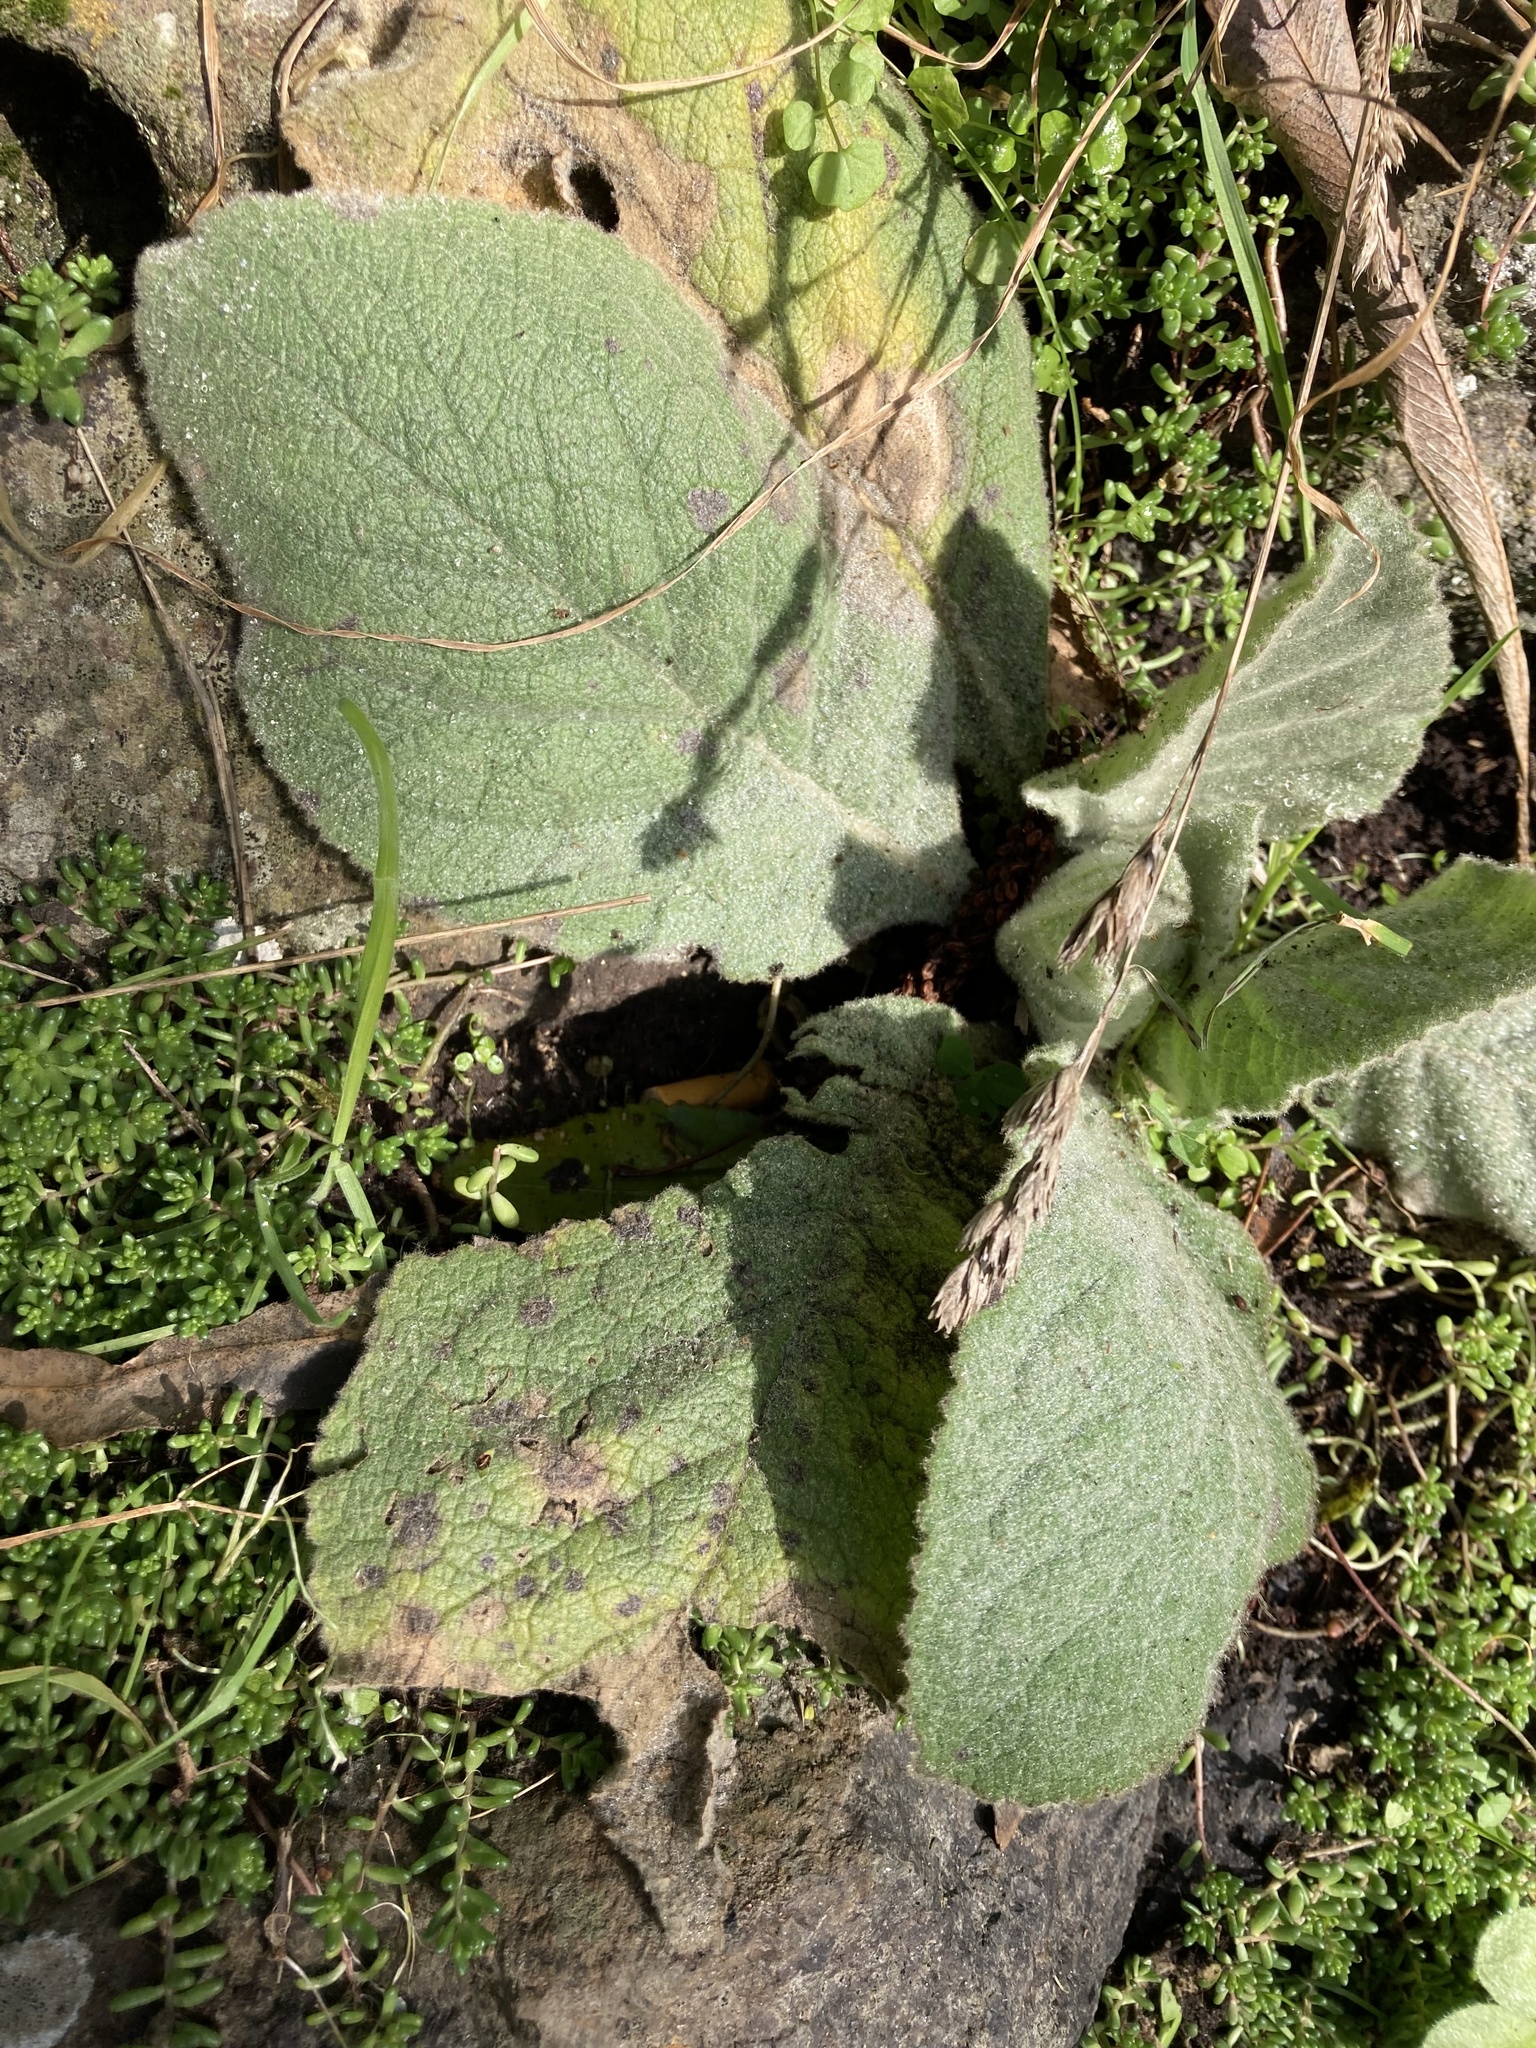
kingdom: Plantae
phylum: Tracheophyta
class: Magnoliopsida
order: Lamiales
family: Scrophulariaceae
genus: Verbascum
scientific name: Verbascum thapsus
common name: Common mullein
